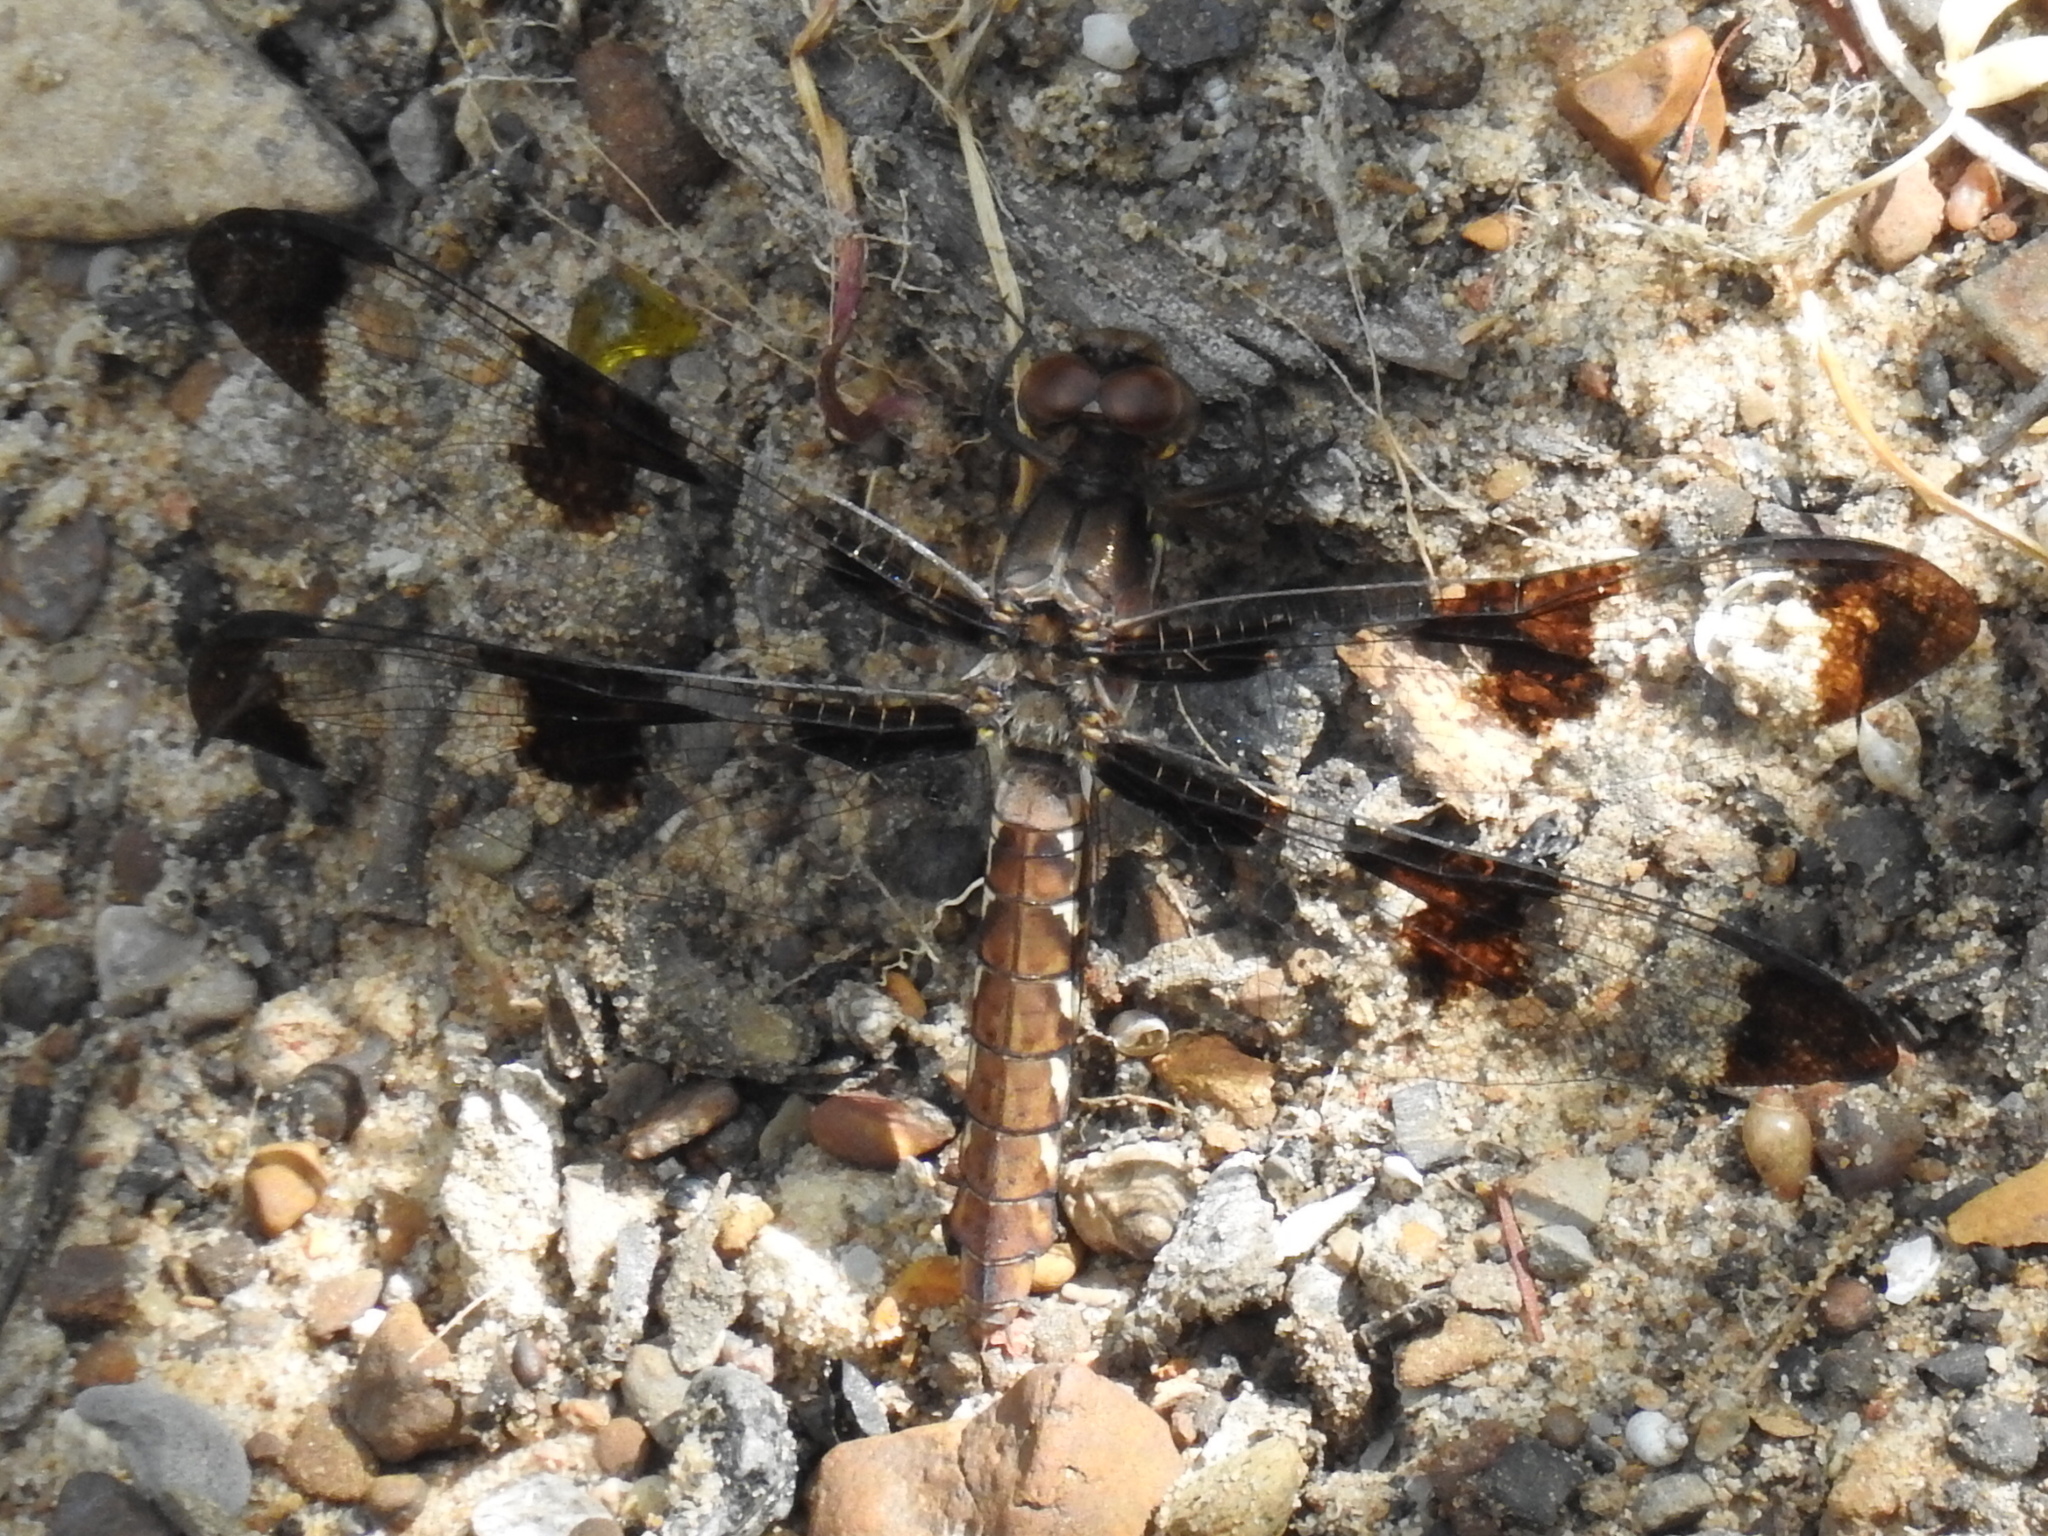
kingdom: Animalia
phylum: Arthropoda
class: Insecta
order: Odonata
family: Libellulidae
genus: Plathemis
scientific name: Plathemis lydia
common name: Common whitetail
